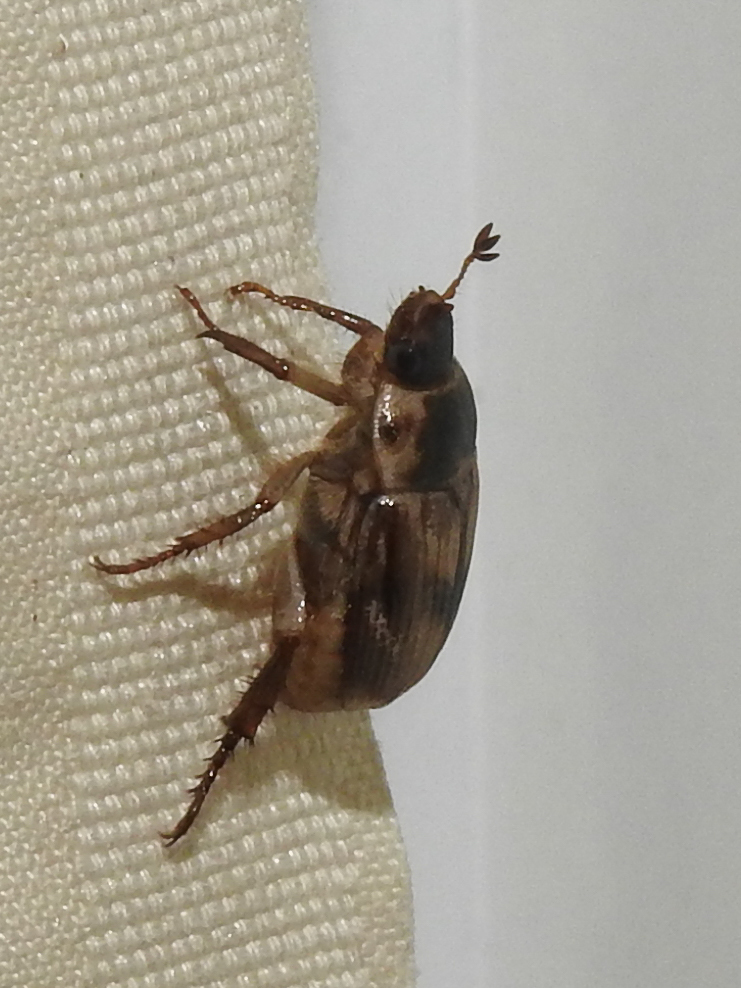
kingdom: Animalia
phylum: Arthropoda
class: Insecta
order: Coleoptera
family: Scarabaeidae
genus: Exomala
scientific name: Exomala orientalis
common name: Oriental beetle
